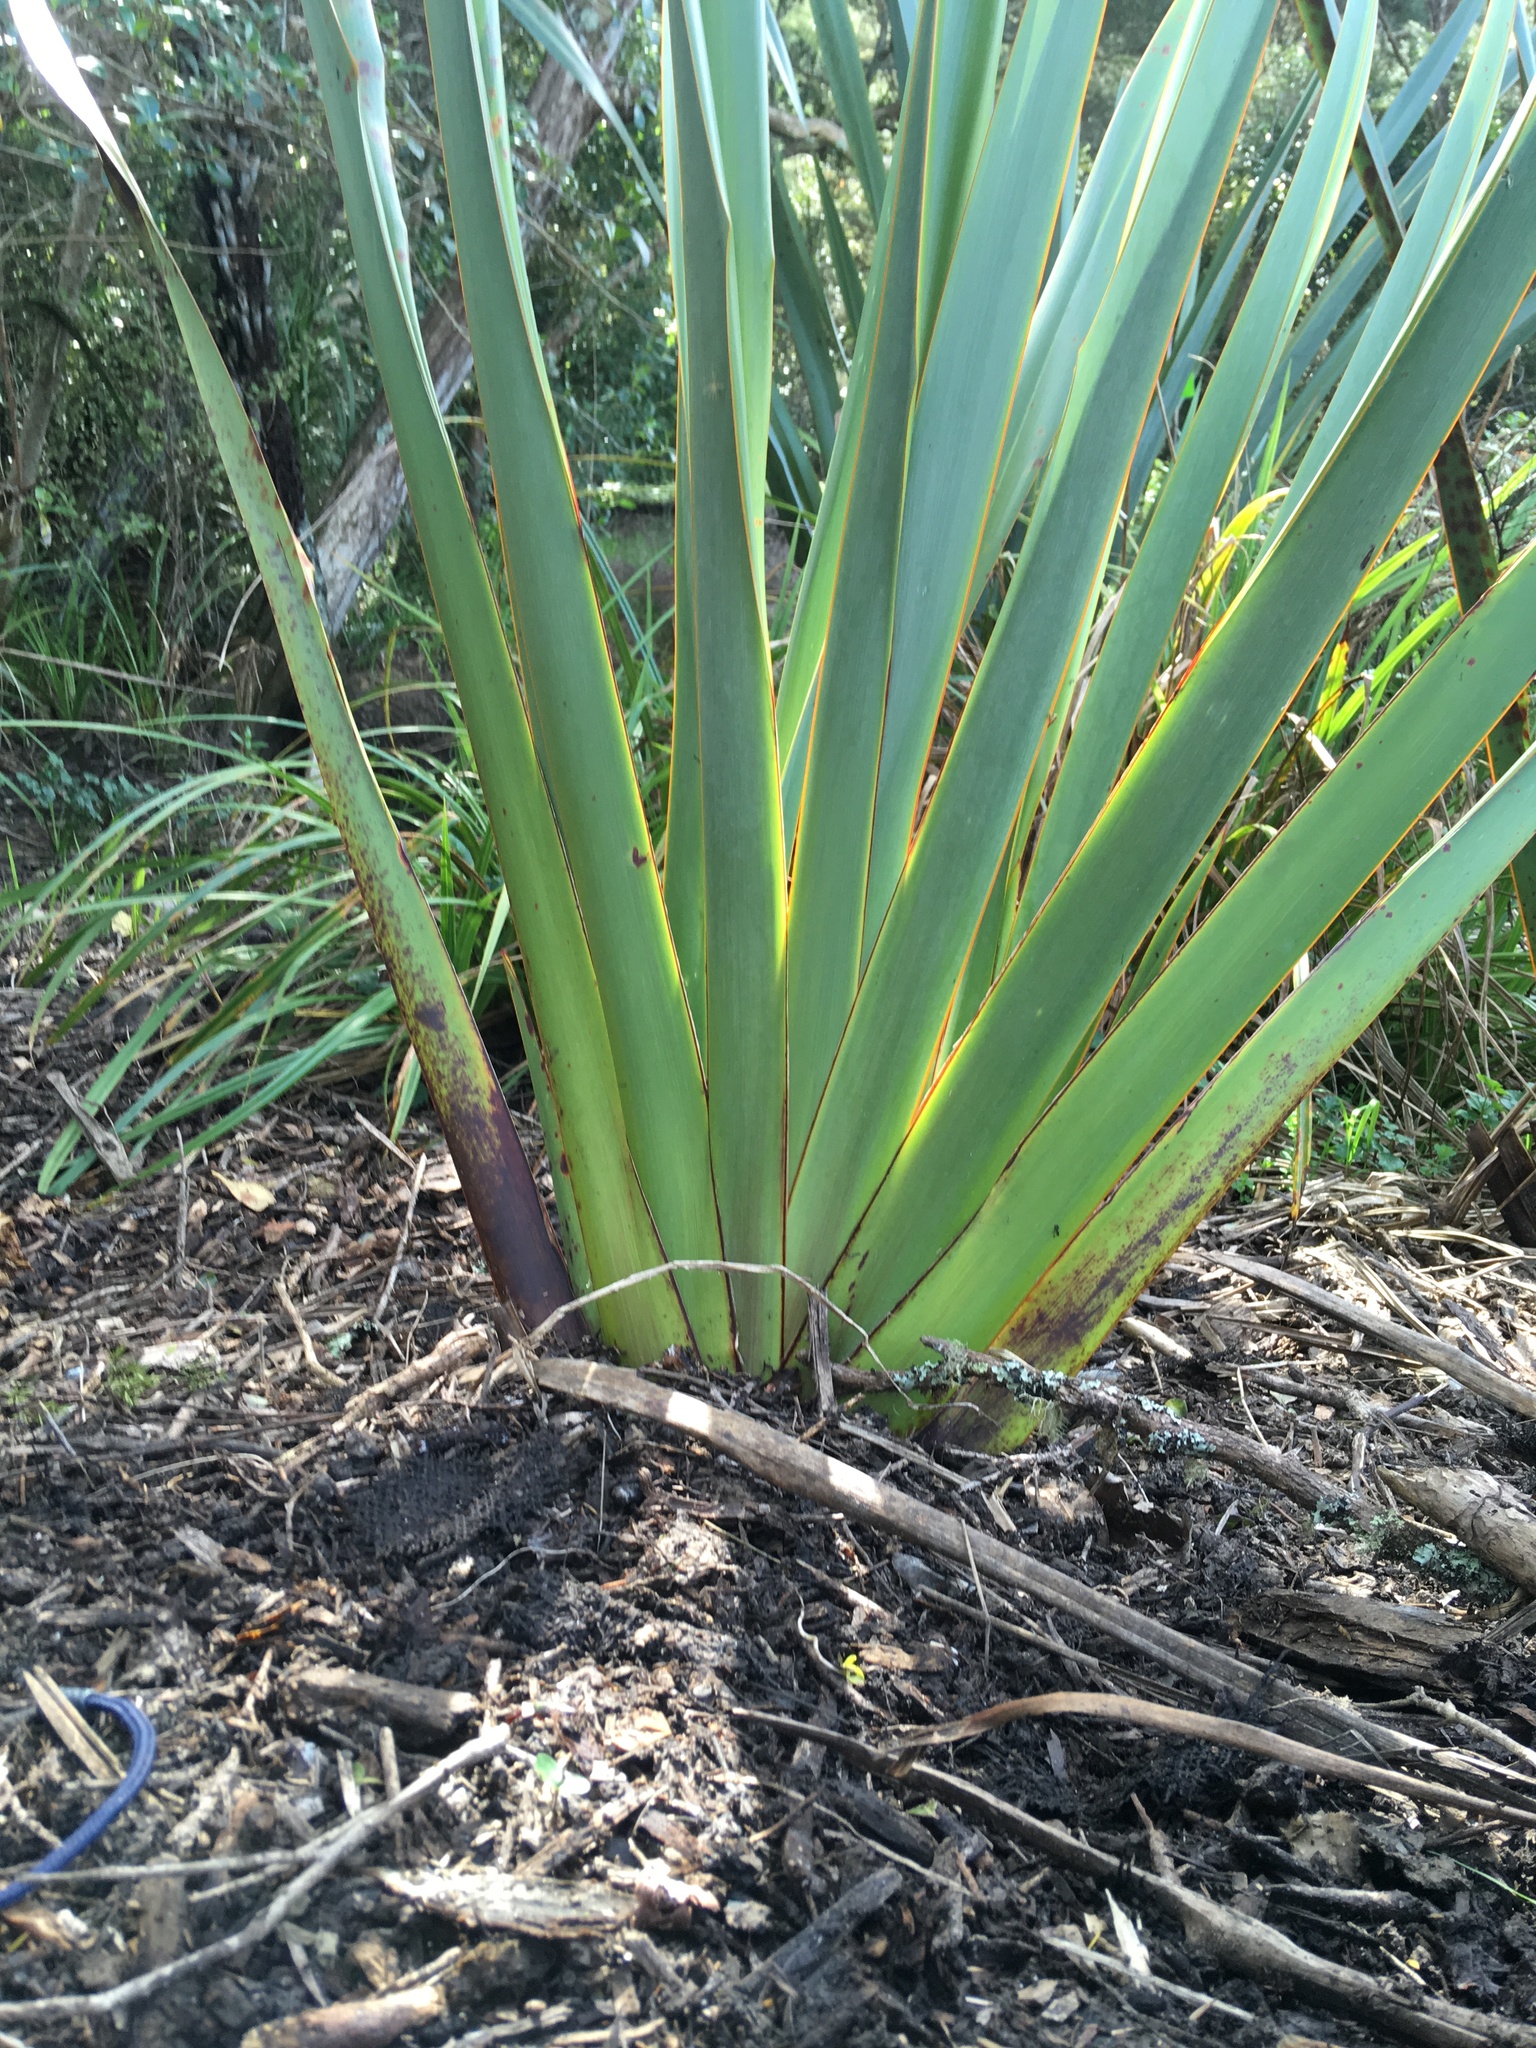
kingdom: Plantae
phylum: Tracheophyta
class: Liliopsida
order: Asparagales
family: Asphodelaceae
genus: Phormium
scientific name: Phormium tenax
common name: New zealand flax
